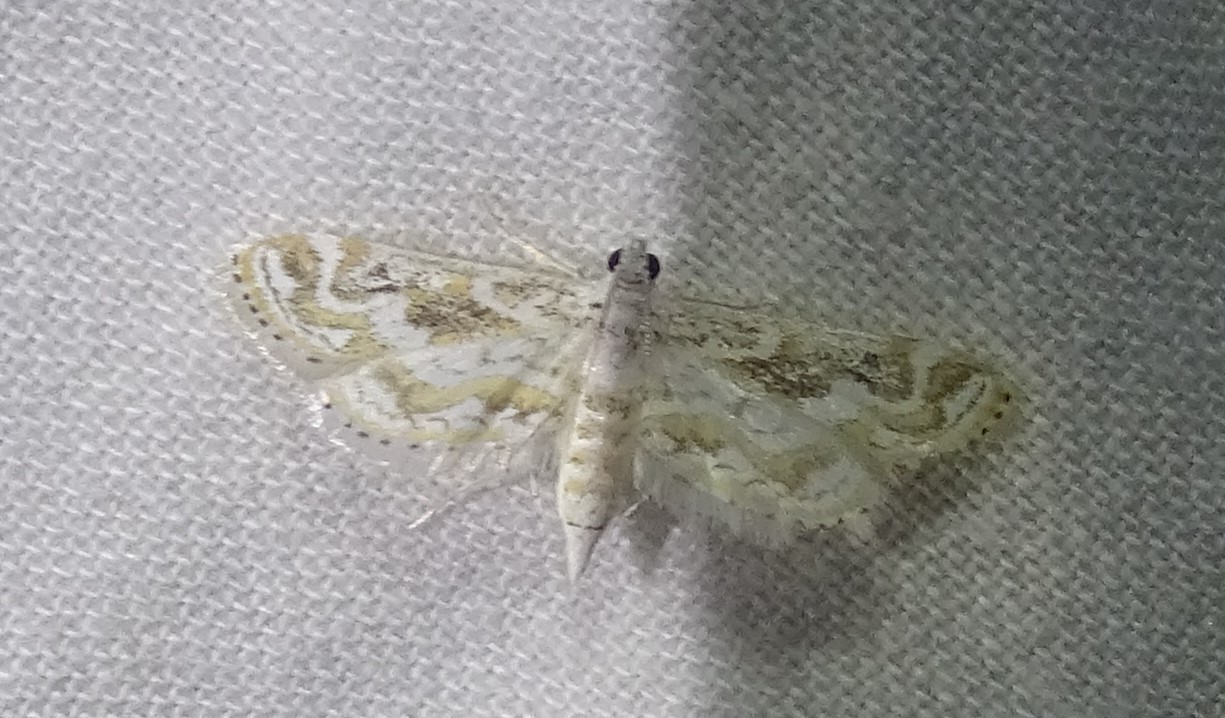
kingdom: Animalia
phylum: Arthropoda
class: Insecta
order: Lepidoptera
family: Crambidae
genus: Parapoynx
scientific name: Parapoynx diminutalis
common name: Hydrilla leafcutter
